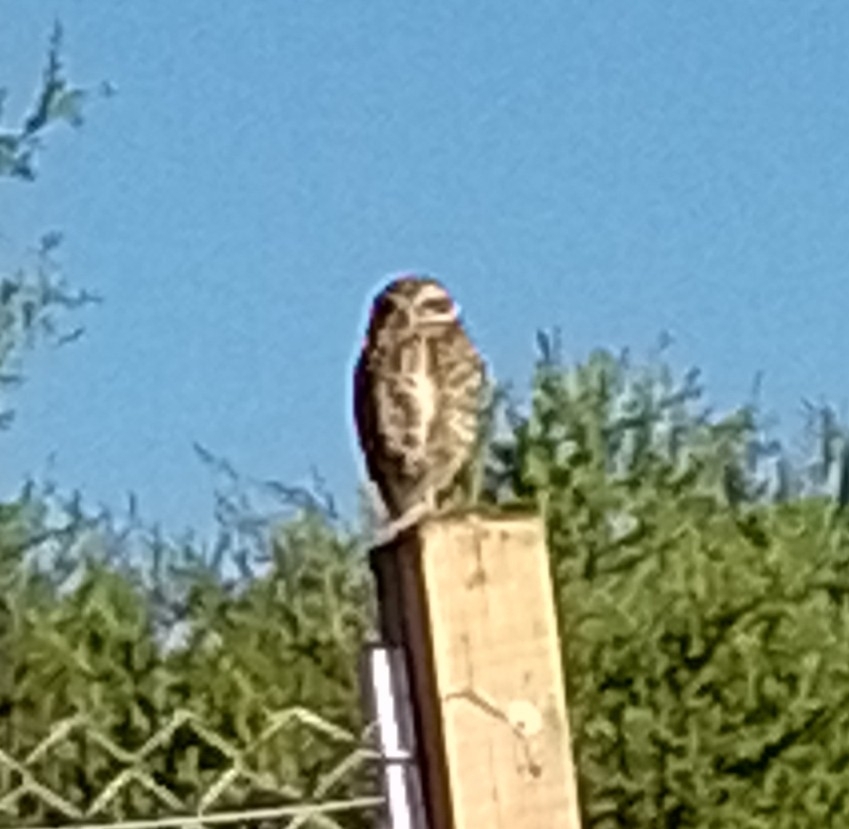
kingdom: Animalia
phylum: Chordata
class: Aves
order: Strigiformes
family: Strigidae
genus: Athene
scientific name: Athene cunicularia
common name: Burrowing owl
